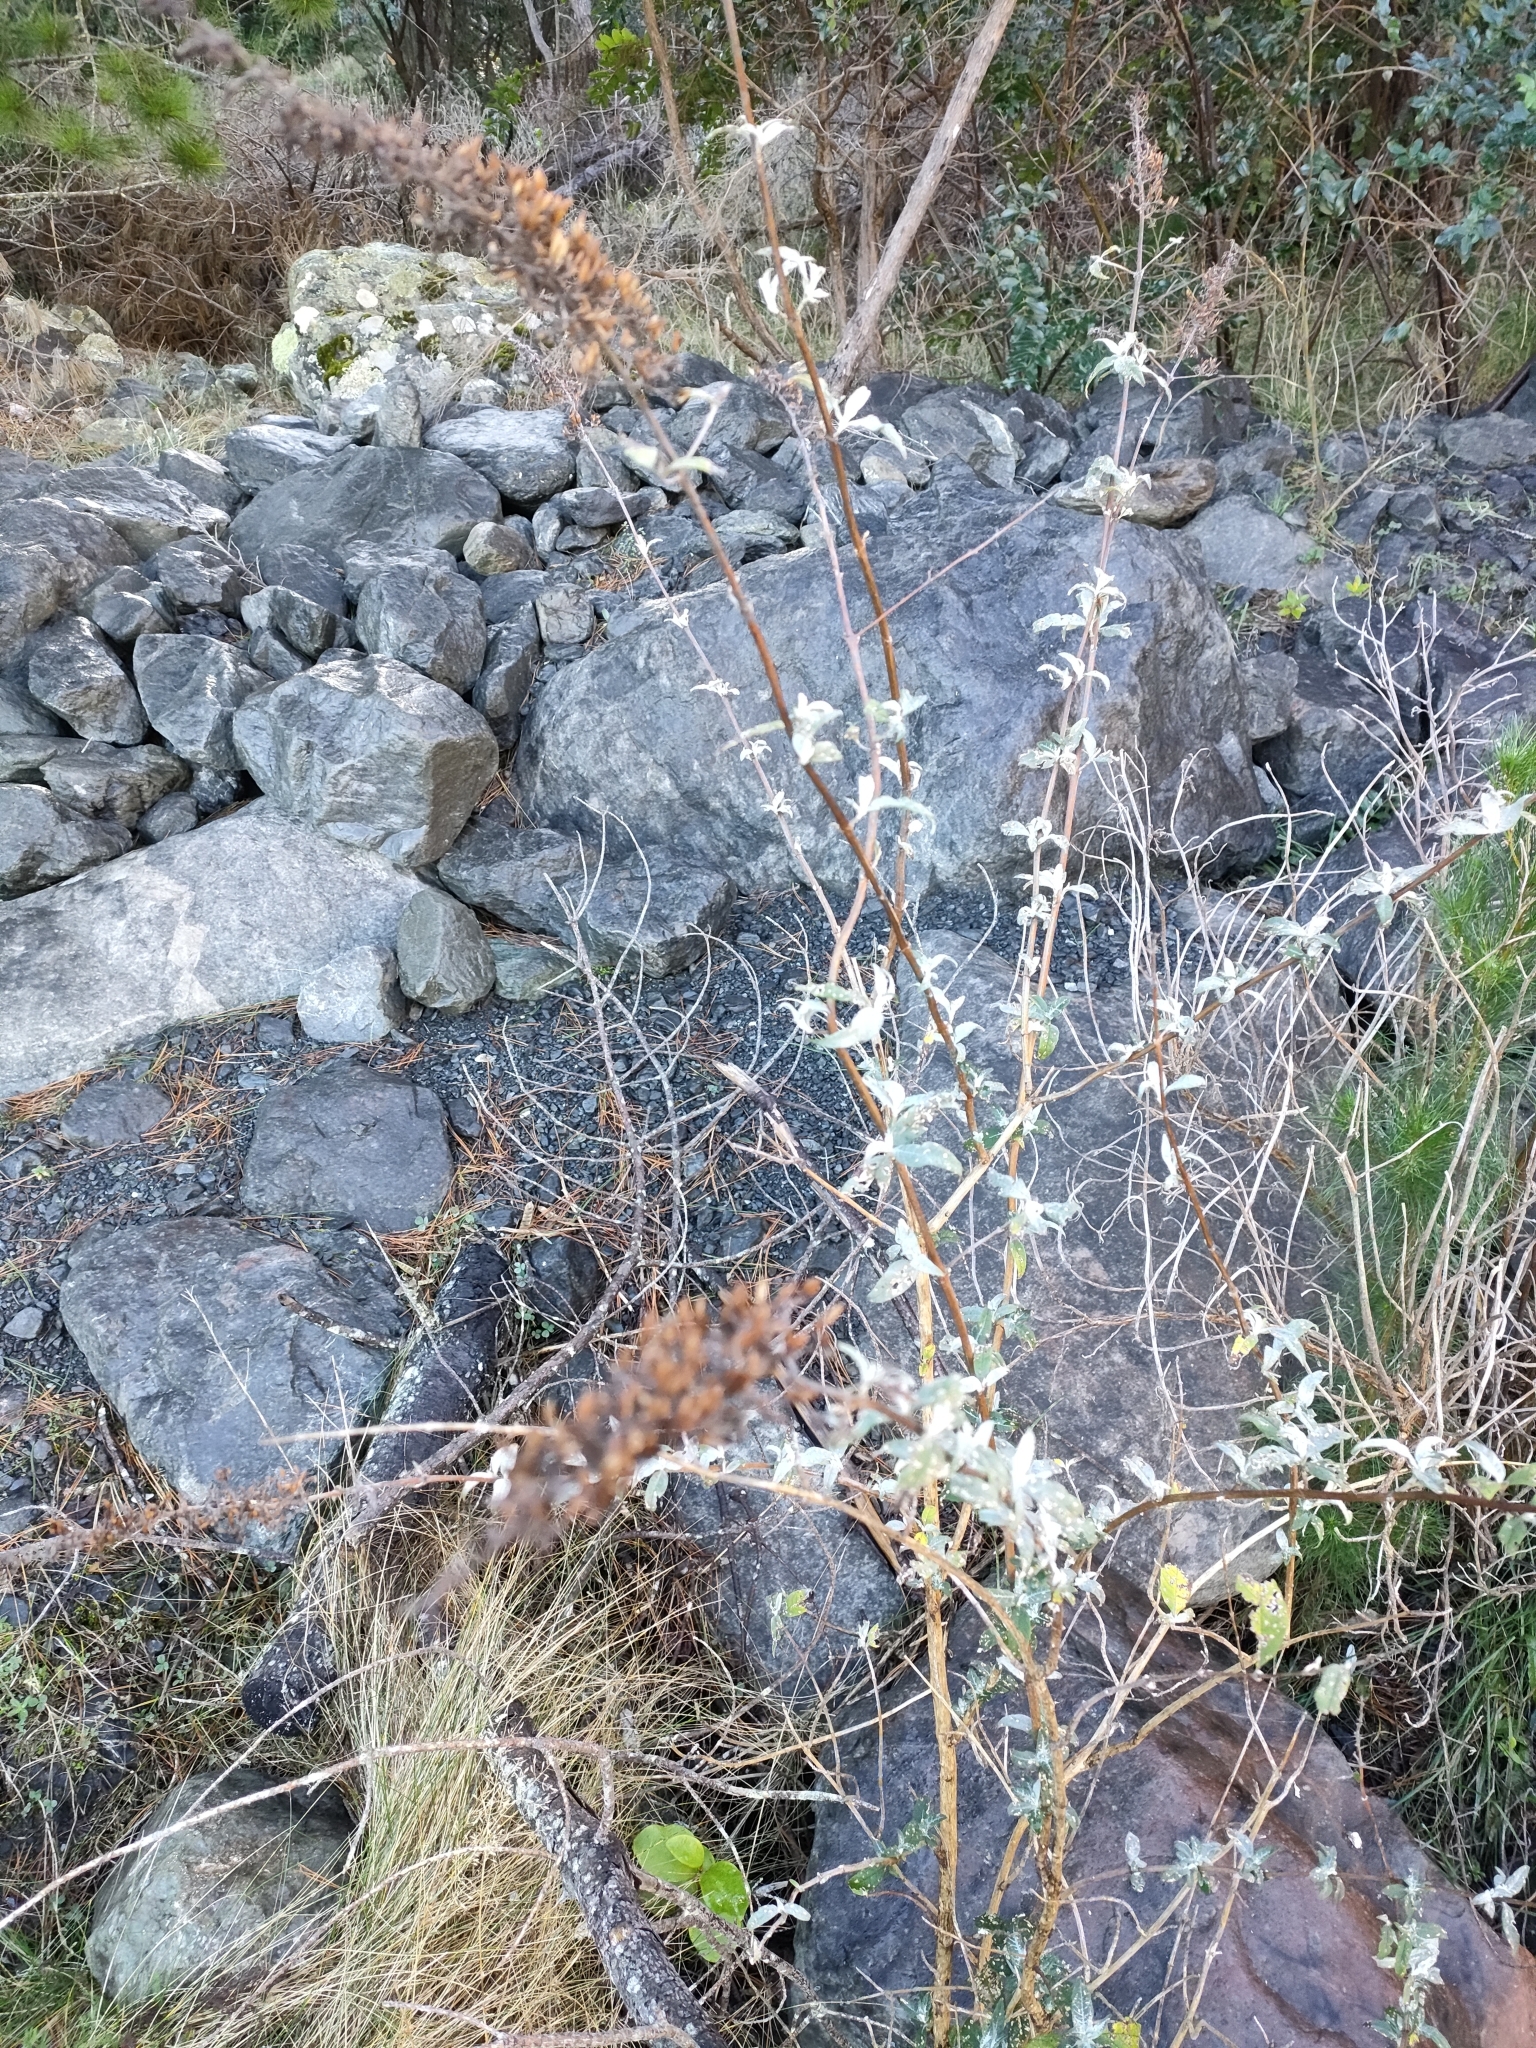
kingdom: Plantae
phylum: Tracheophyta
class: Magnoliopsida
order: Lamiales
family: Scrophulariaceae
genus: Buddleja
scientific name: Buddleja davidii
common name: Butterfly-bush
